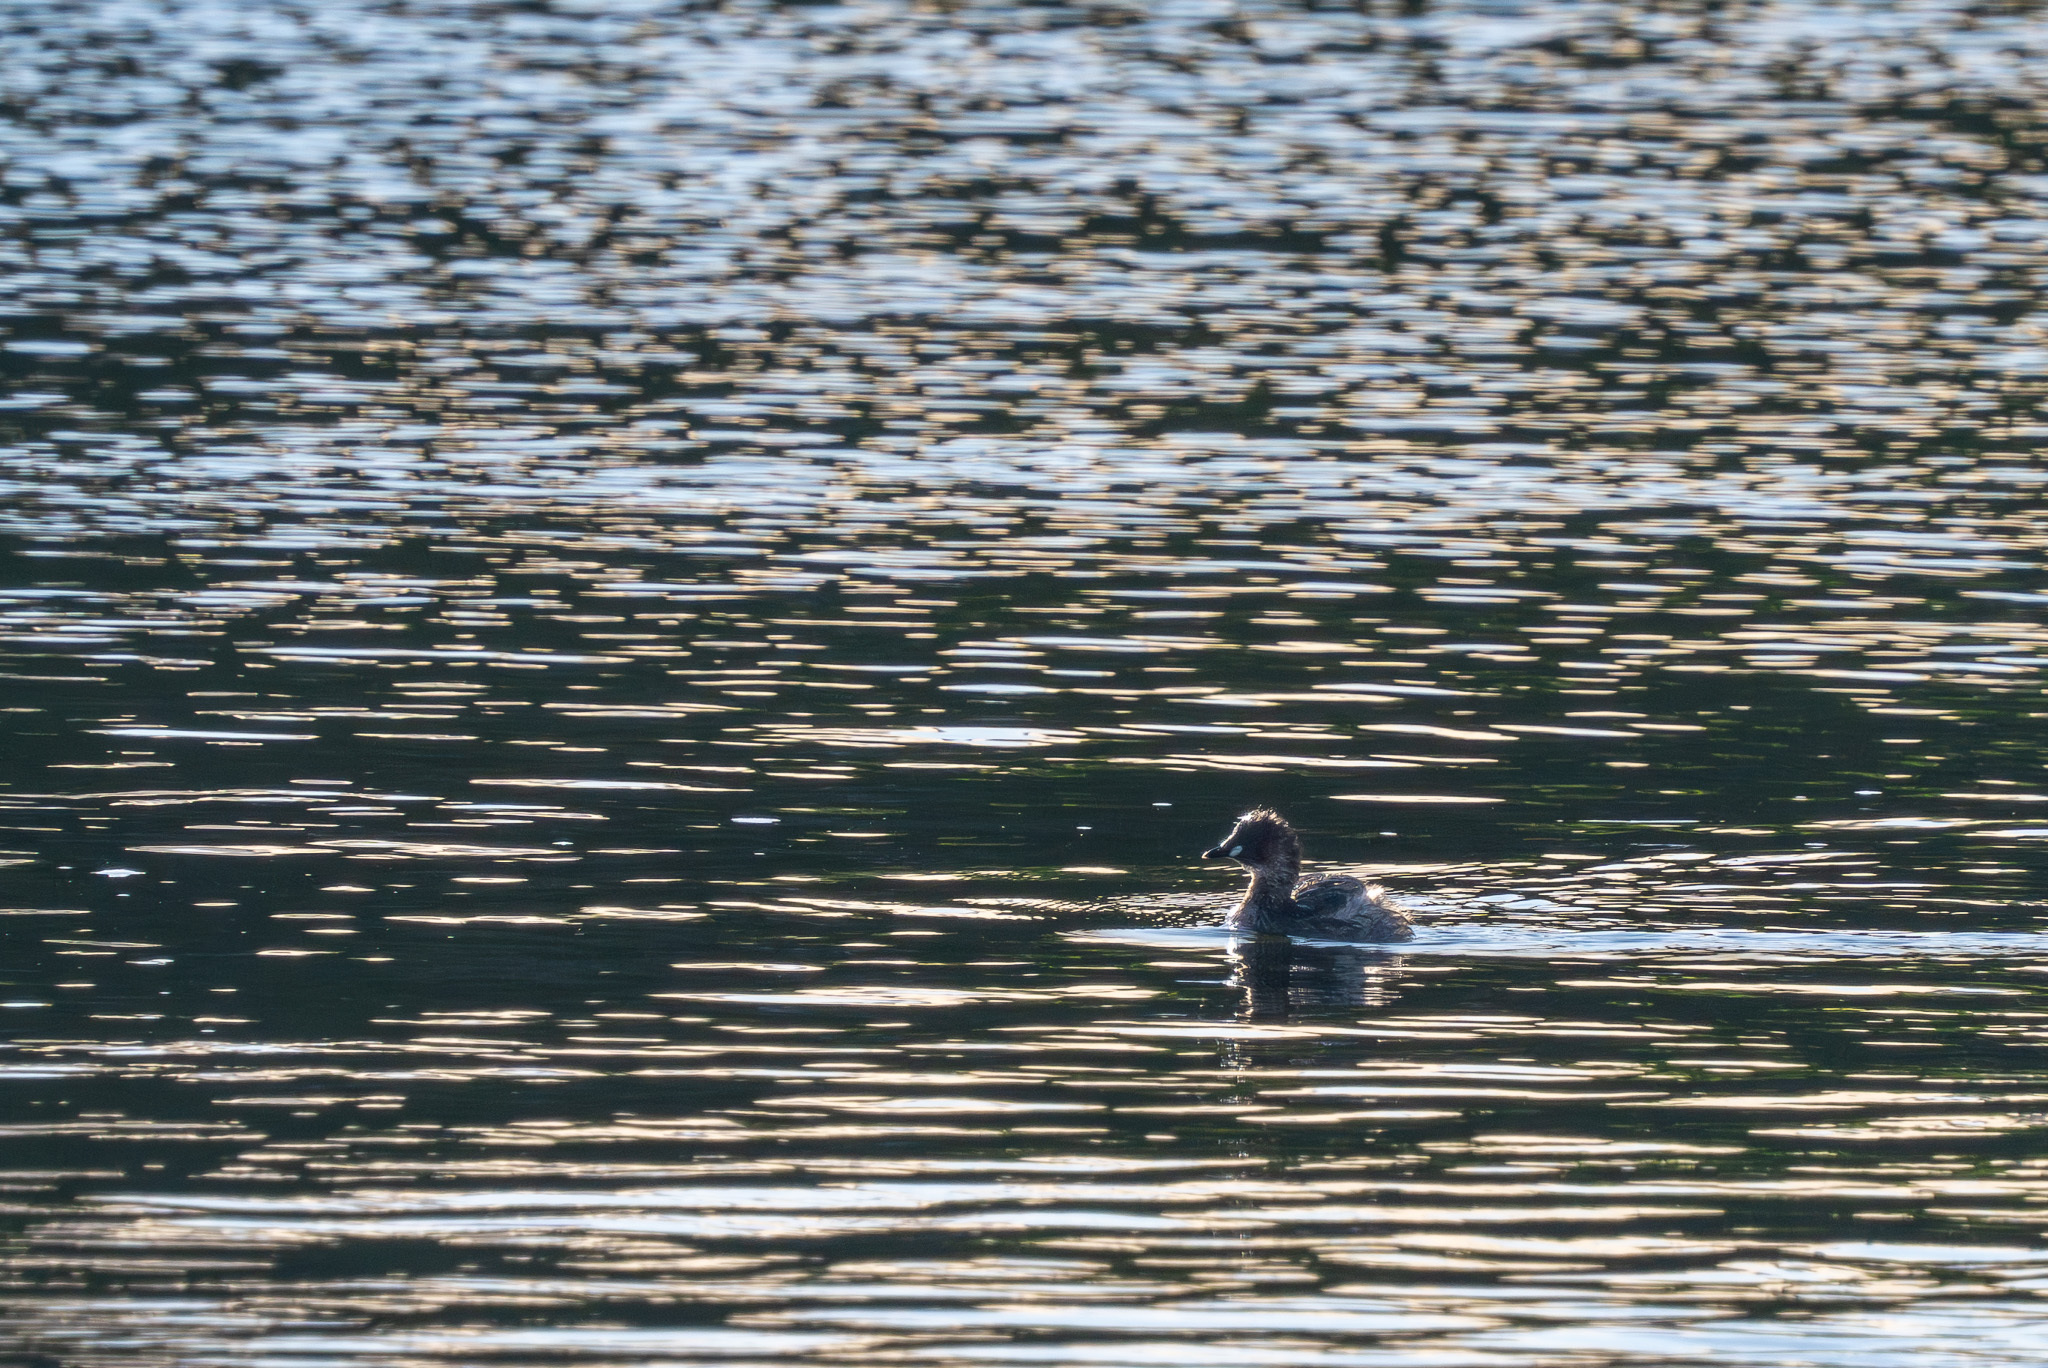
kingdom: Animalia
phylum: Chordata
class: Aves
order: Podicipediformes
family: Podicipedidae
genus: Tachybaptus
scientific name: Tachybaptus ruficollis
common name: Little grebe
